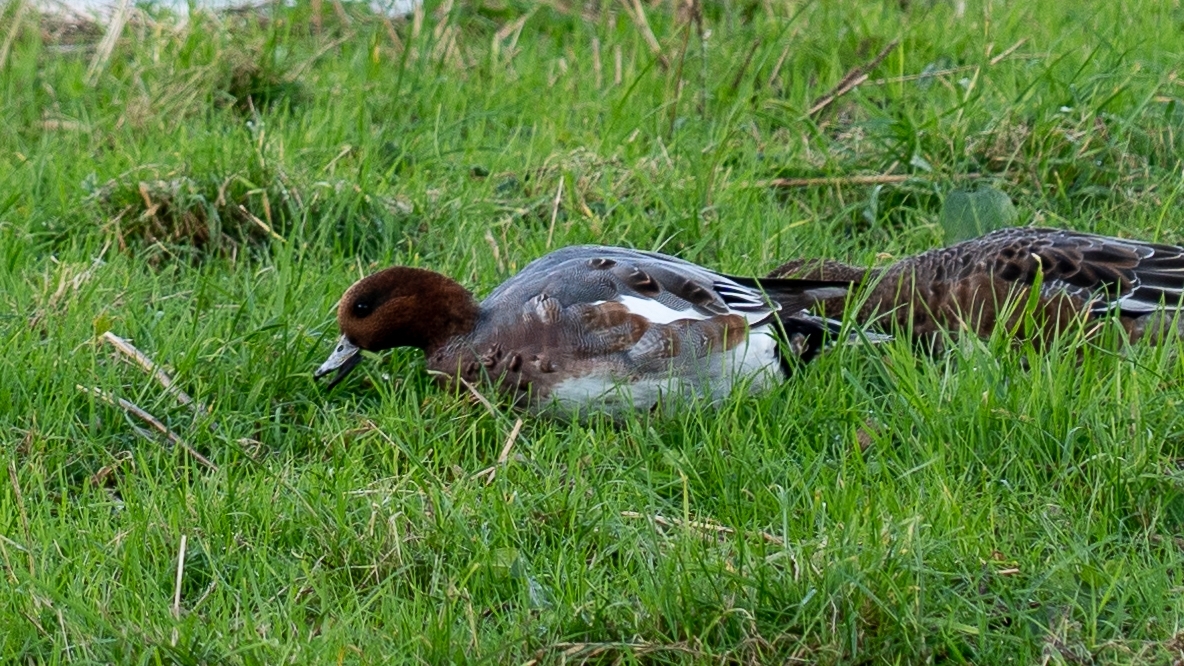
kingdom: Animalia
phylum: Chordata
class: Aves
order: Anseriformes
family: Anatidae
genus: Mareca
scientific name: Mareca penelope
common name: Eurasian wigeon
